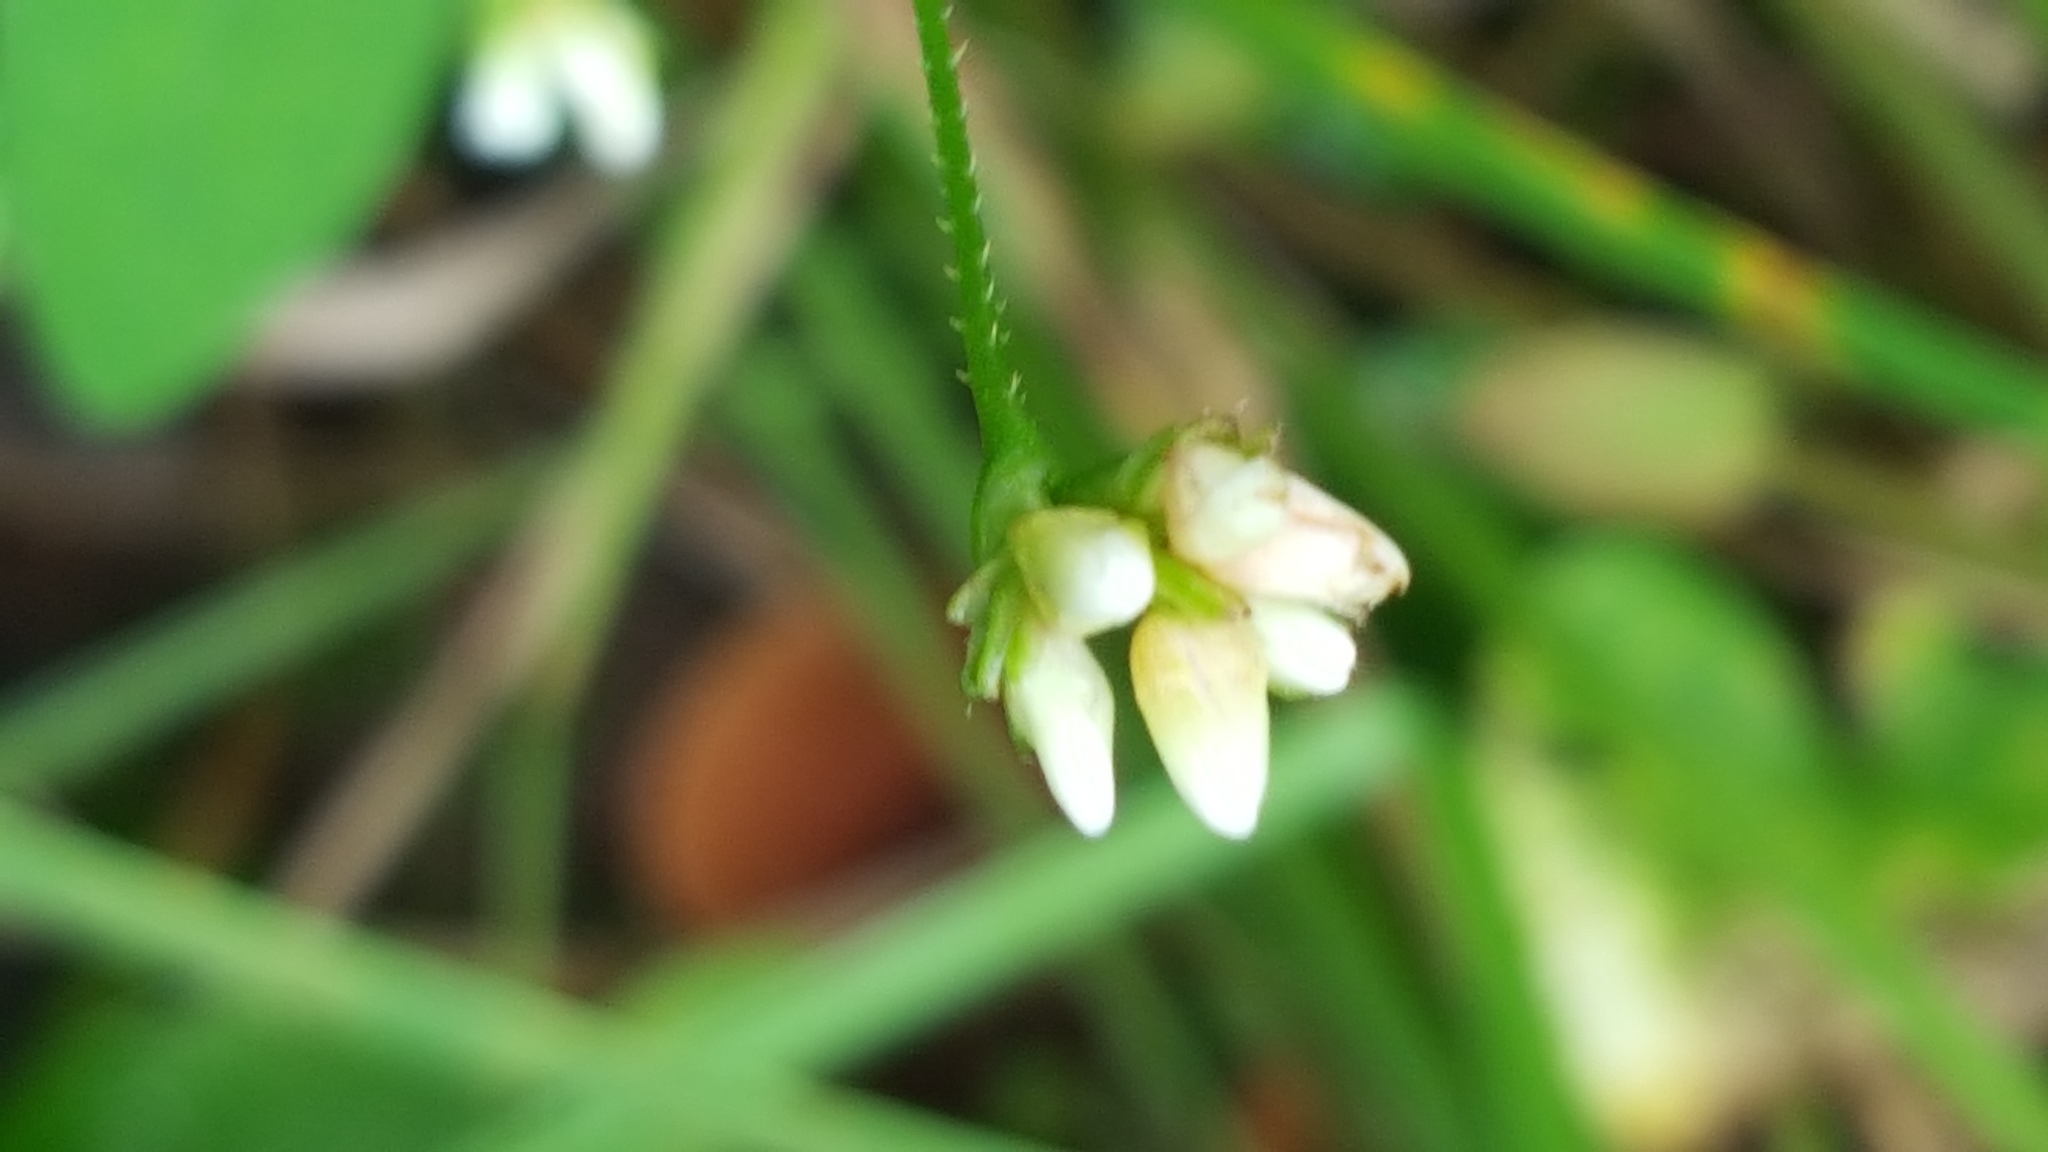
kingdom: Plantae
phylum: Tracheophyta
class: Magnoliopsida
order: Caryophyllales
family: Polygonaceae
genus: Persicaria
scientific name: Persicaria sagittata
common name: American tearthumb
